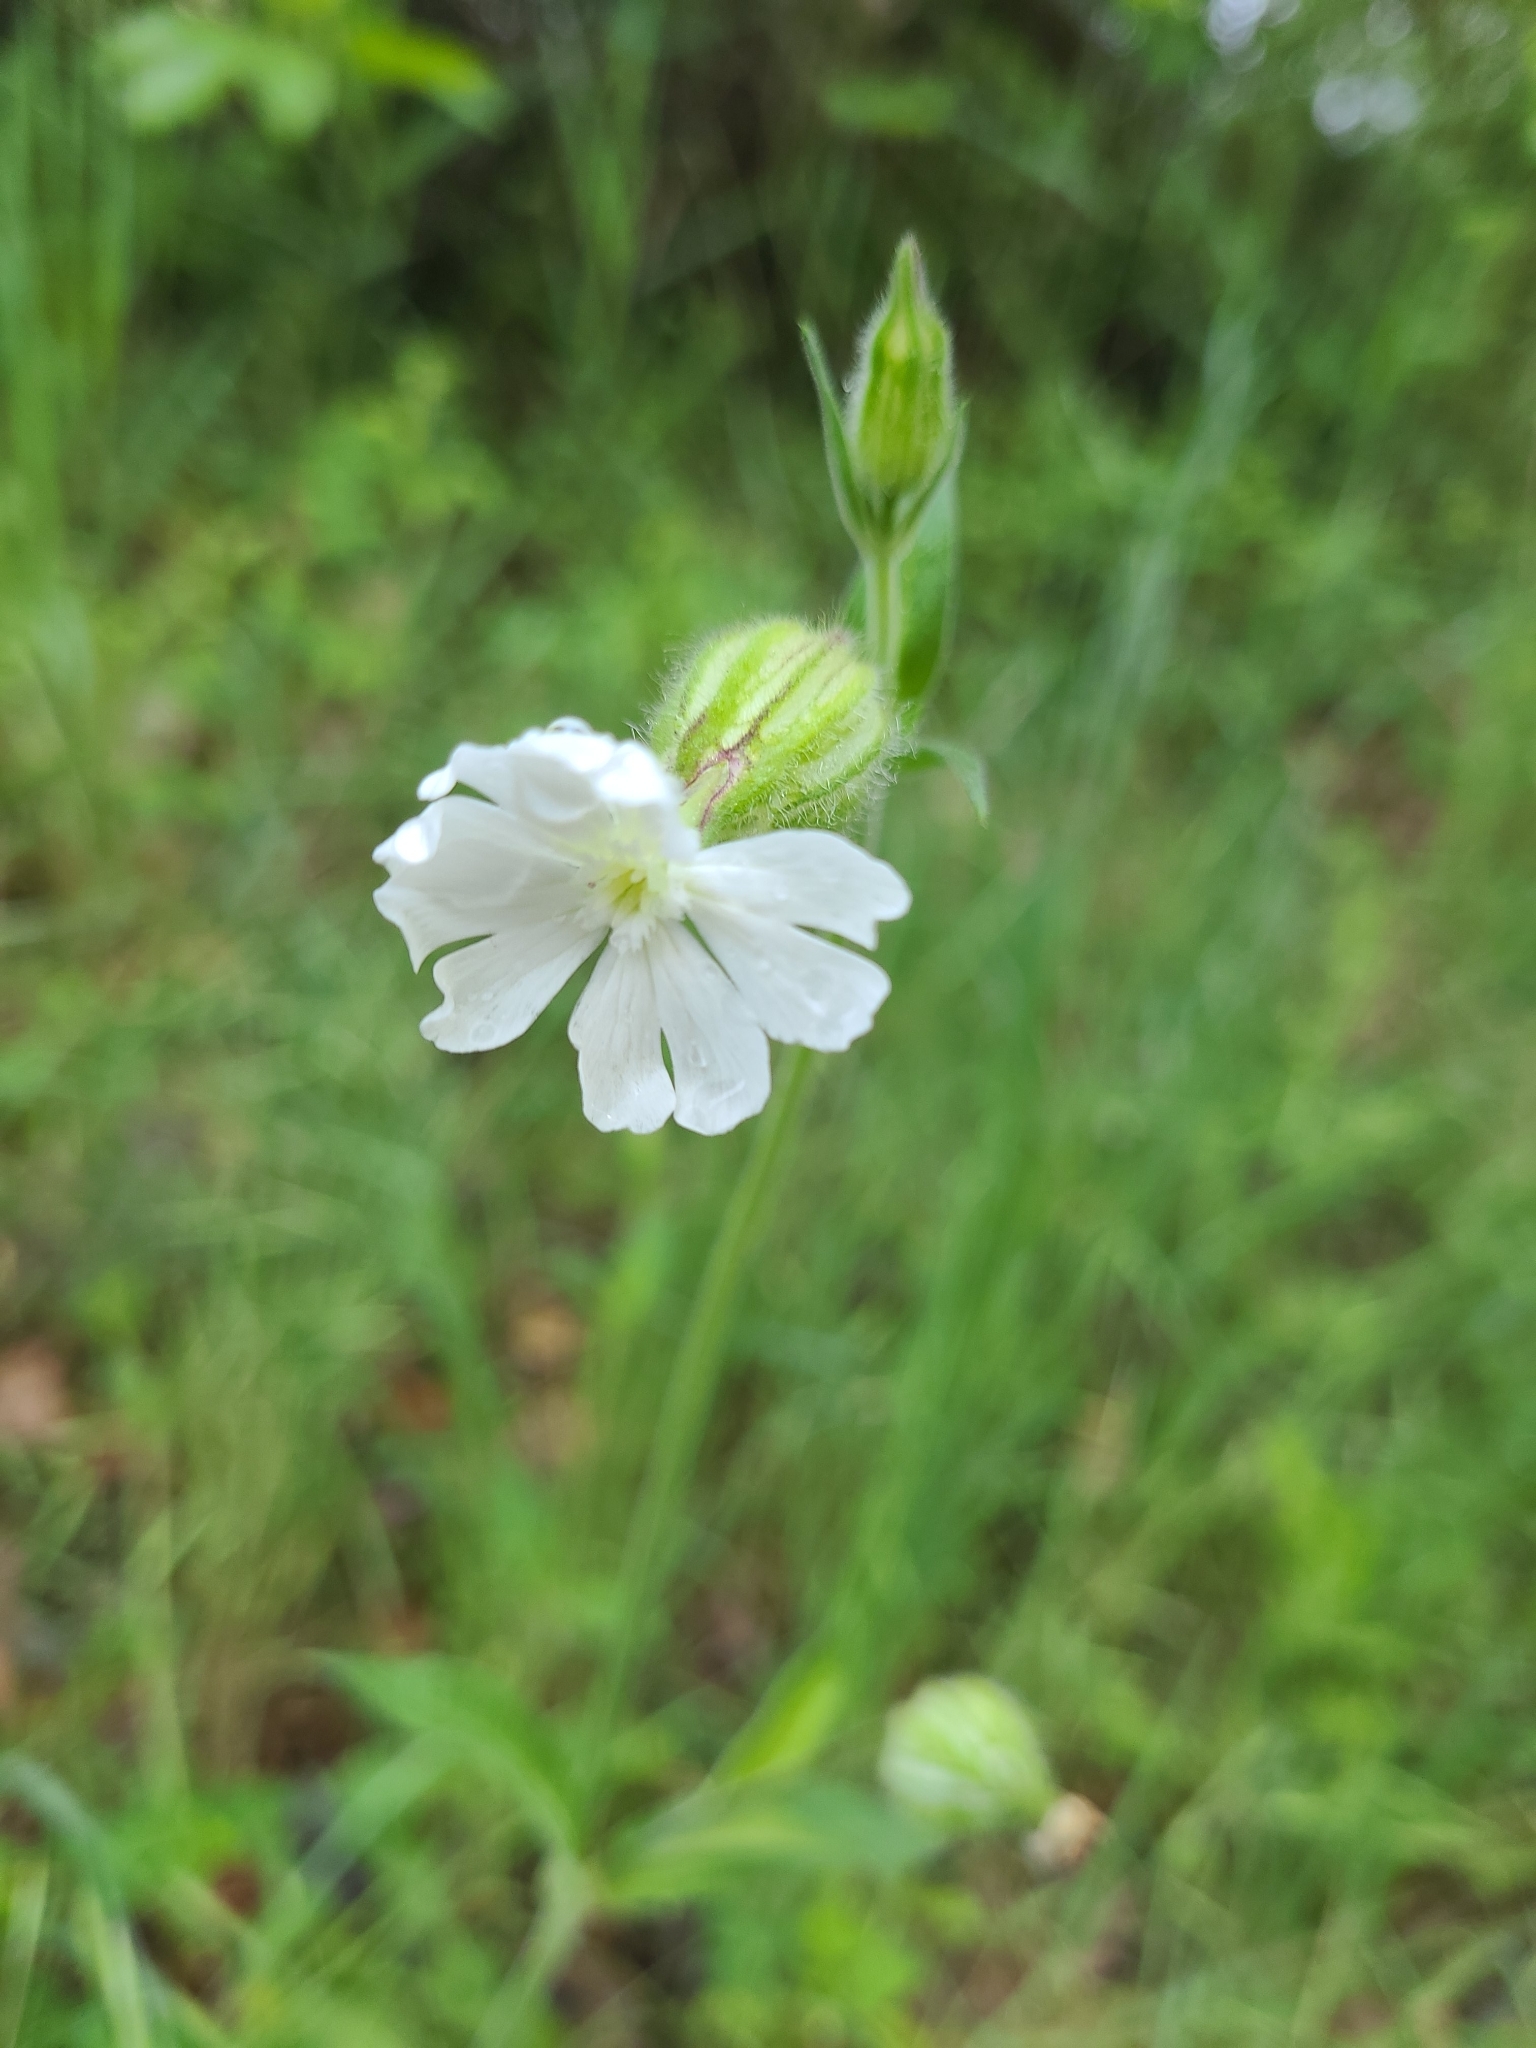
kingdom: Plantae
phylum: Tracheophyta
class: Magnoliopsida
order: Caryophyllales
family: Caryophyllaceae
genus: Silene
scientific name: Silene latifolia
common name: White campion
